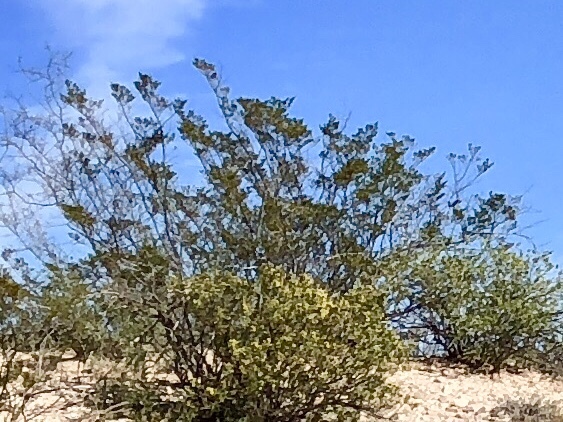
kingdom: Plantae
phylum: Tracheophyta
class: Magnoliopsida
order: Zygophyllales
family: Zygophyllaceae
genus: Larrea
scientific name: Larrea tridentata
